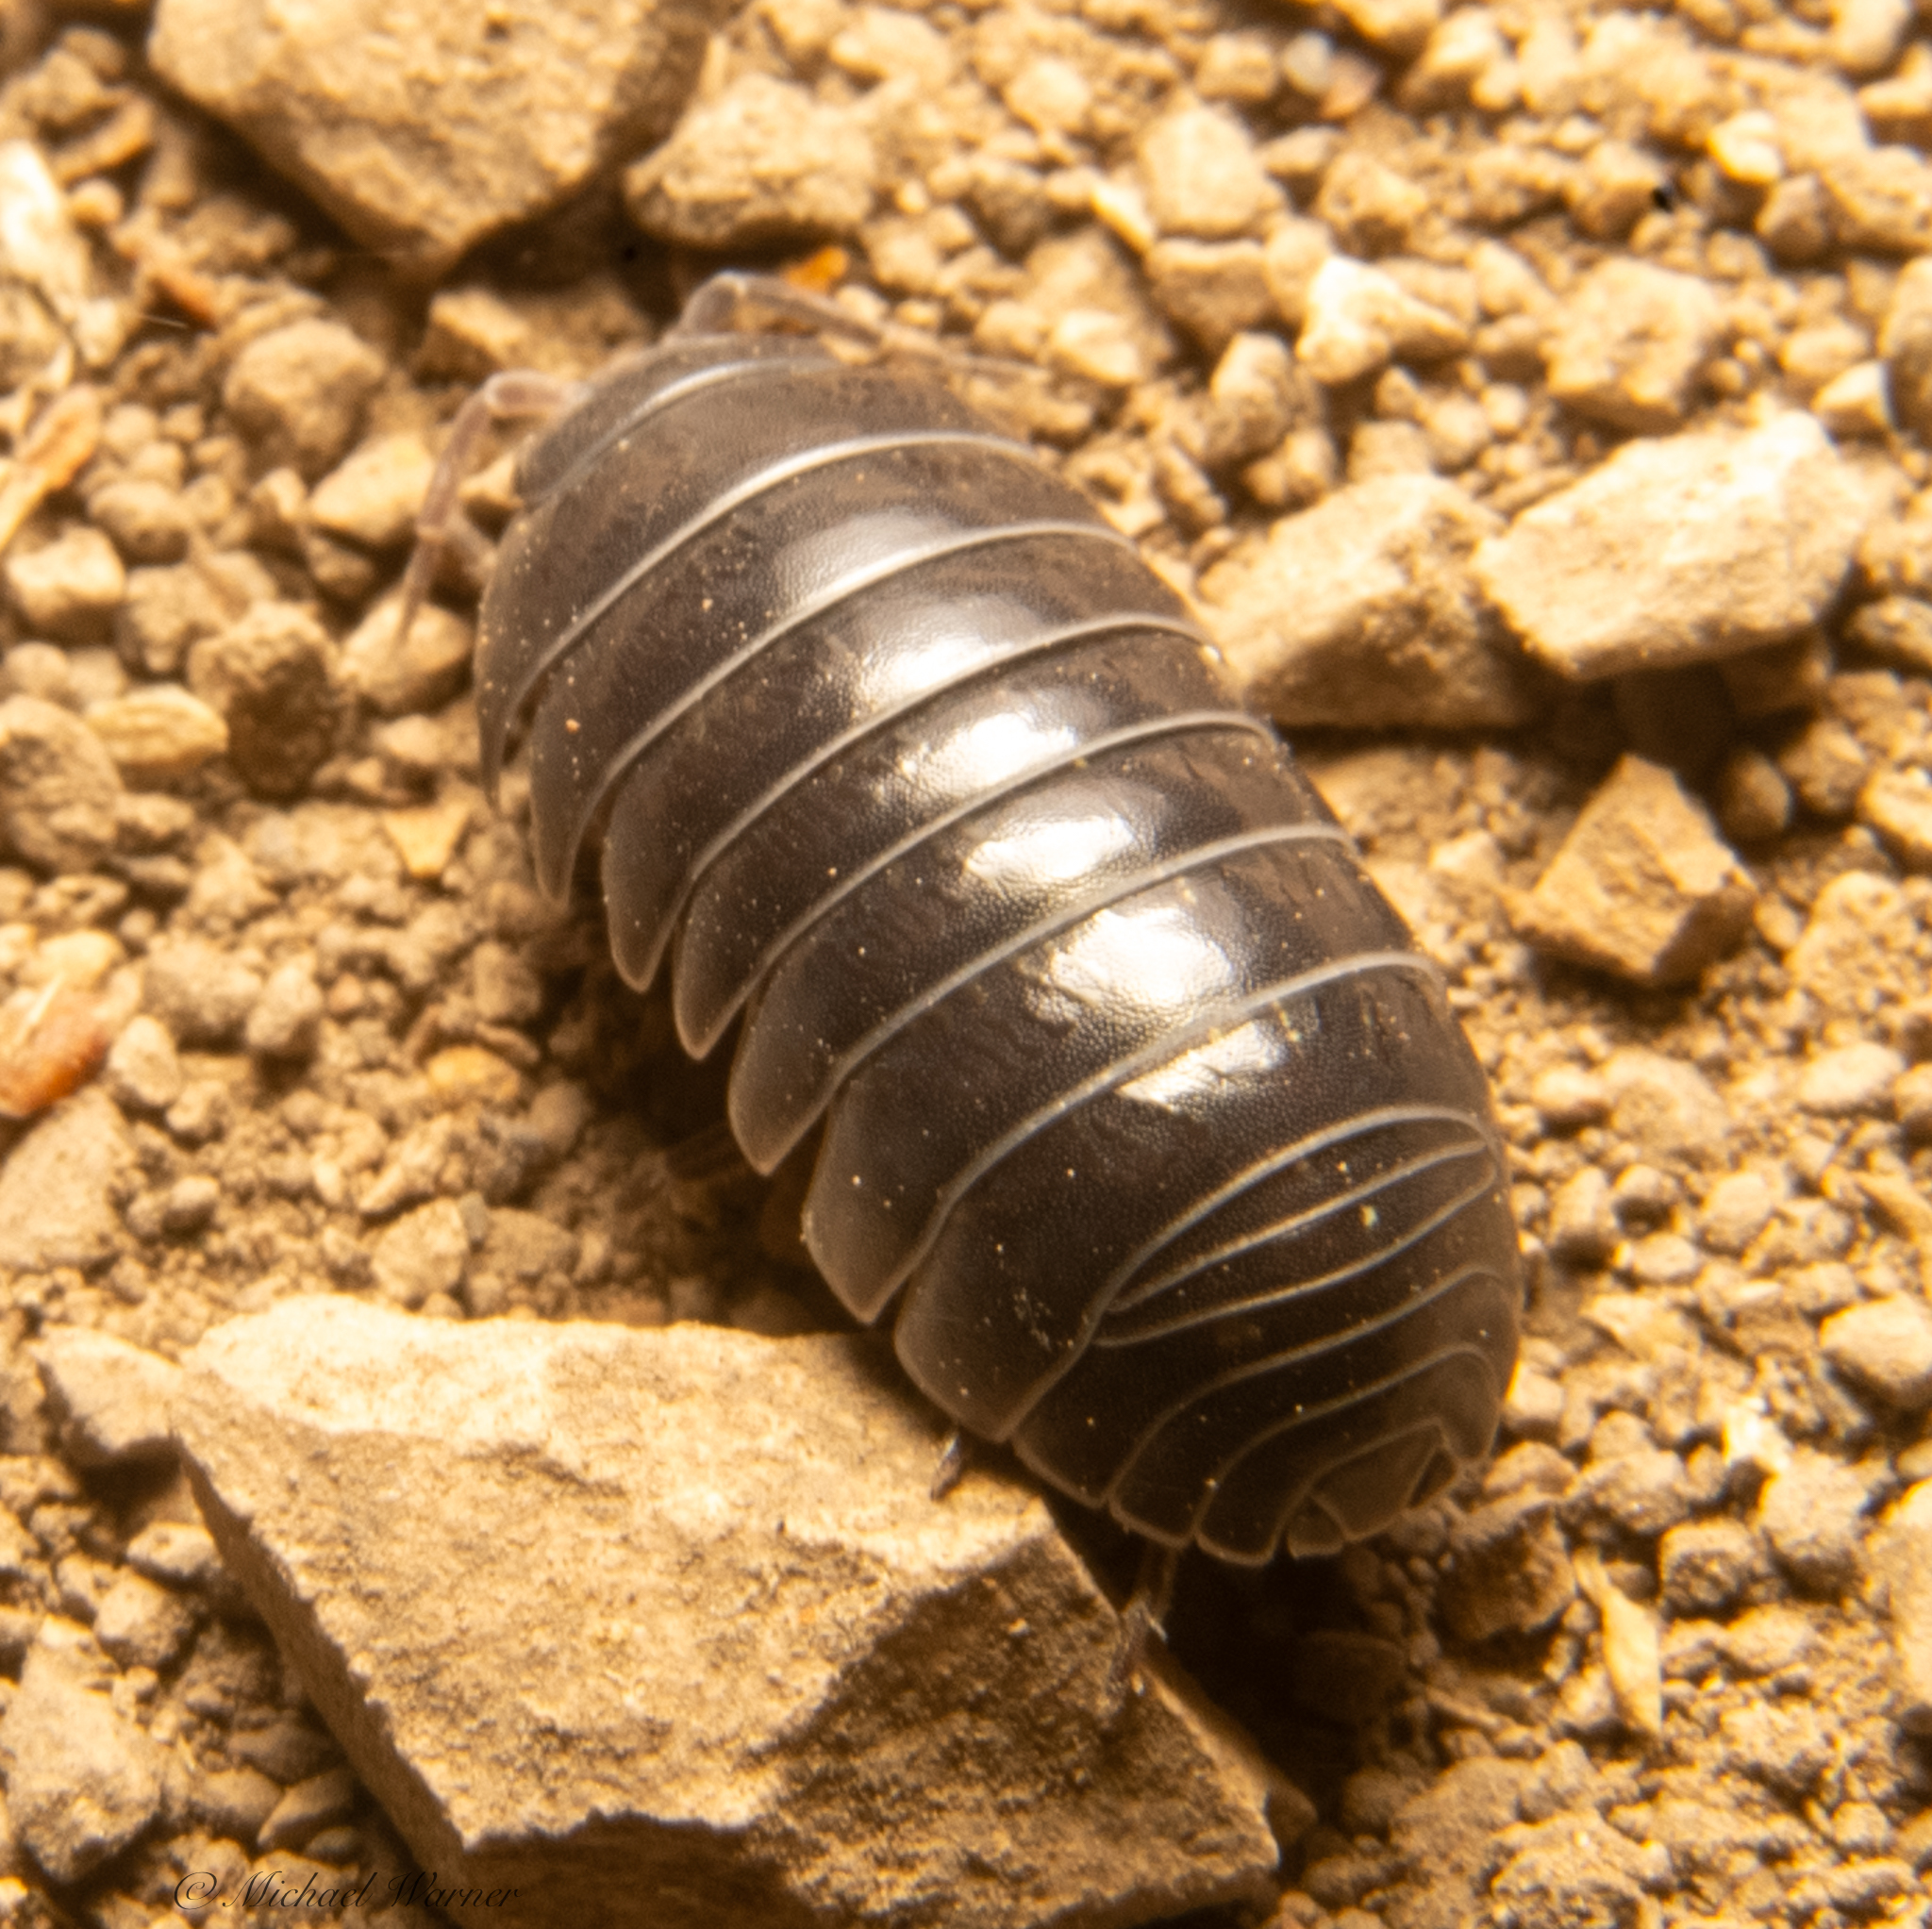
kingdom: Animalia
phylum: Arthropoda
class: Malacostraca
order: Isopoda
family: Armadillidiidae
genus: Armadillidium
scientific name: Armadillidium vulgare
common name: Common pill woodlouse
